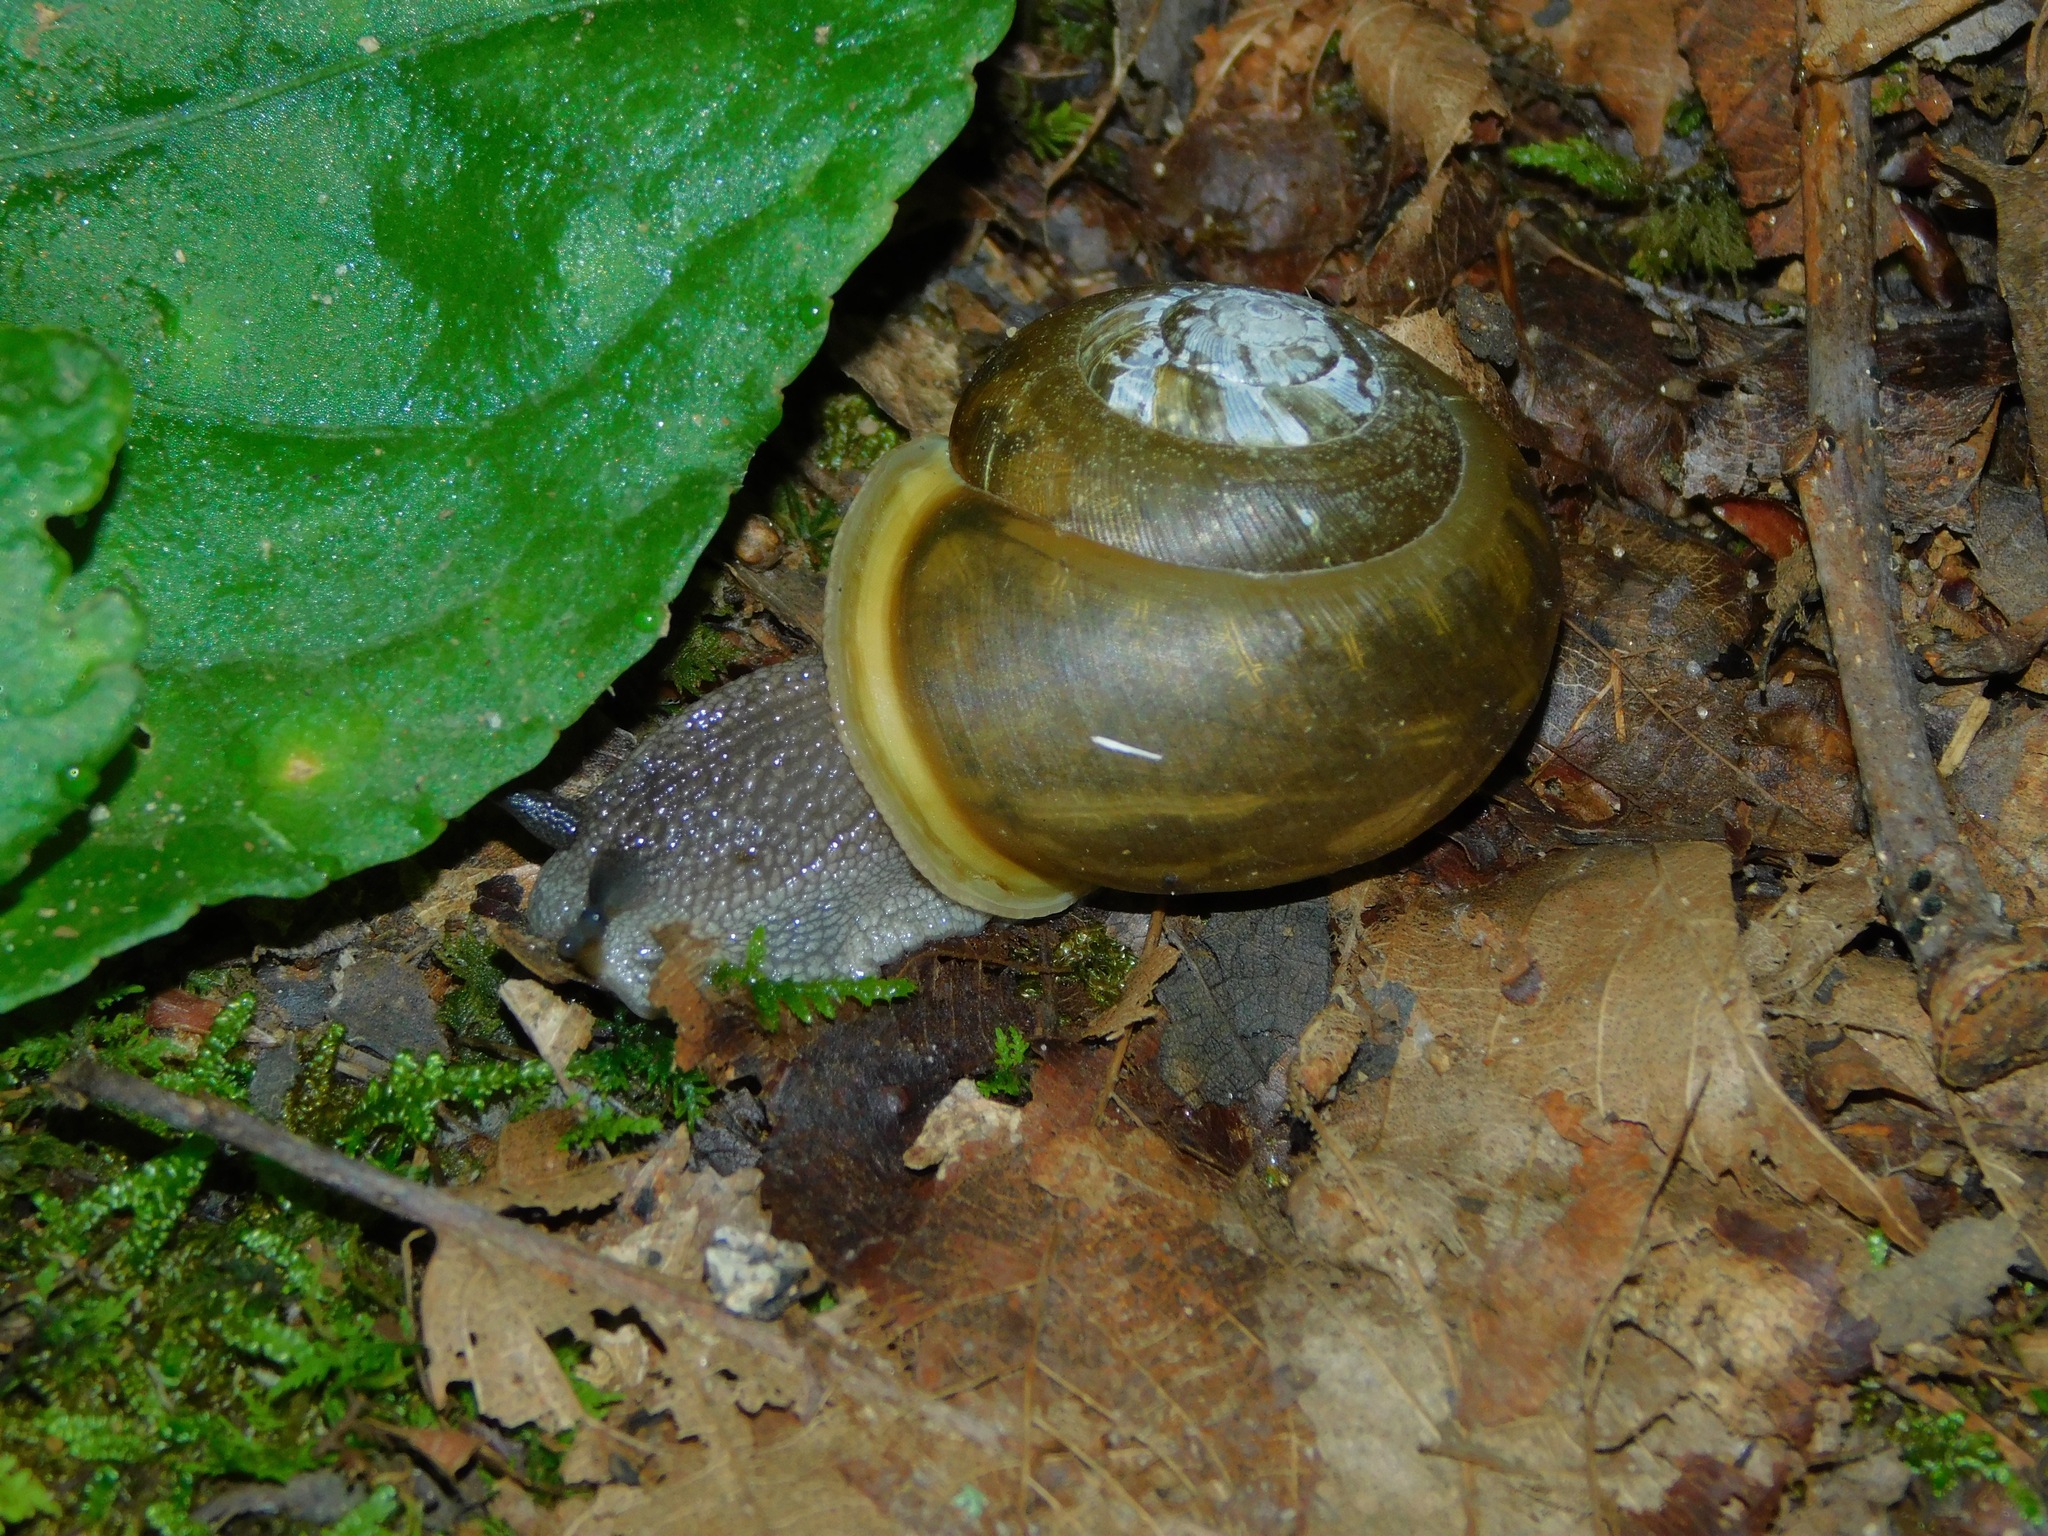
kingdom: Animalia
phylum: Mollusca
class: Gastropoda
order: Stylommatophora
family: Polygyridae
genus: Mesodon
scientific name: Mesodon normalis
